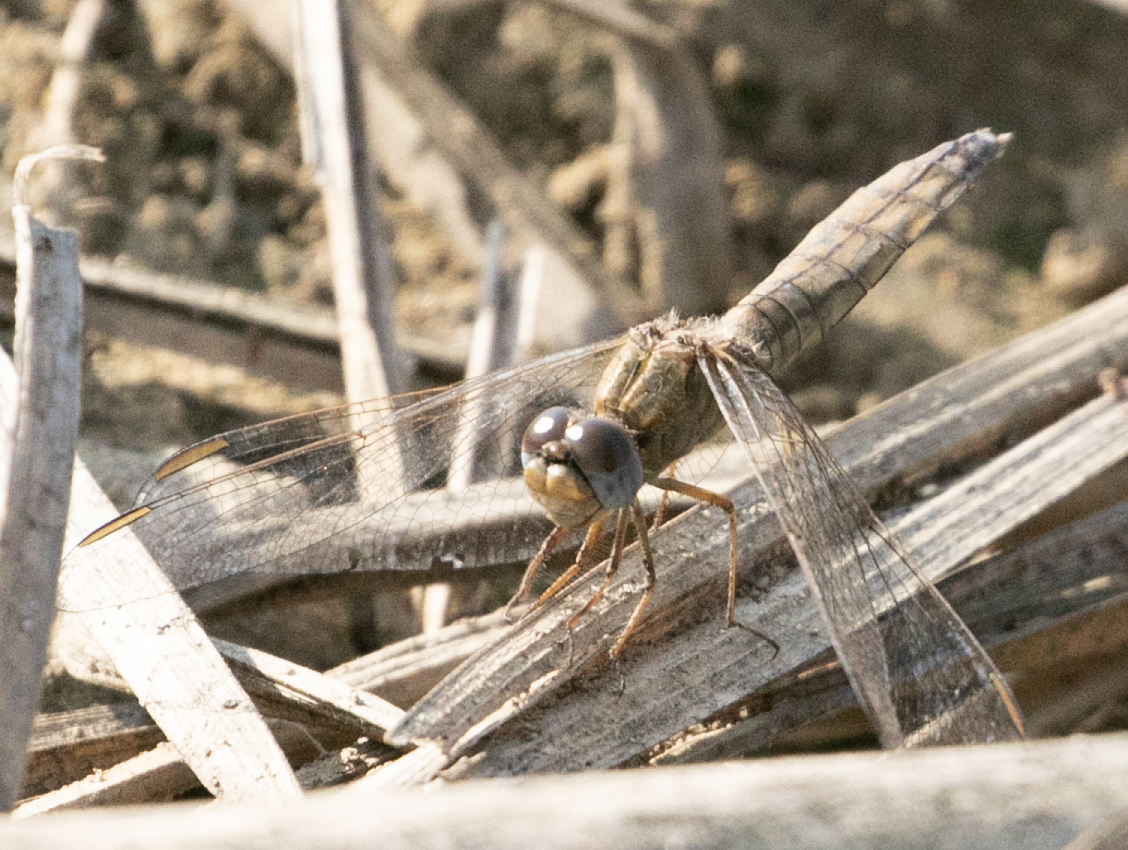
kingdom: Animalia
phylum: Arthropoda
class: Insecta
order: Odonata
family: Libellulidae
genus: Crocothemis
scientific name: Crocothemis erythraea
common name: Scarlet dragonfly
